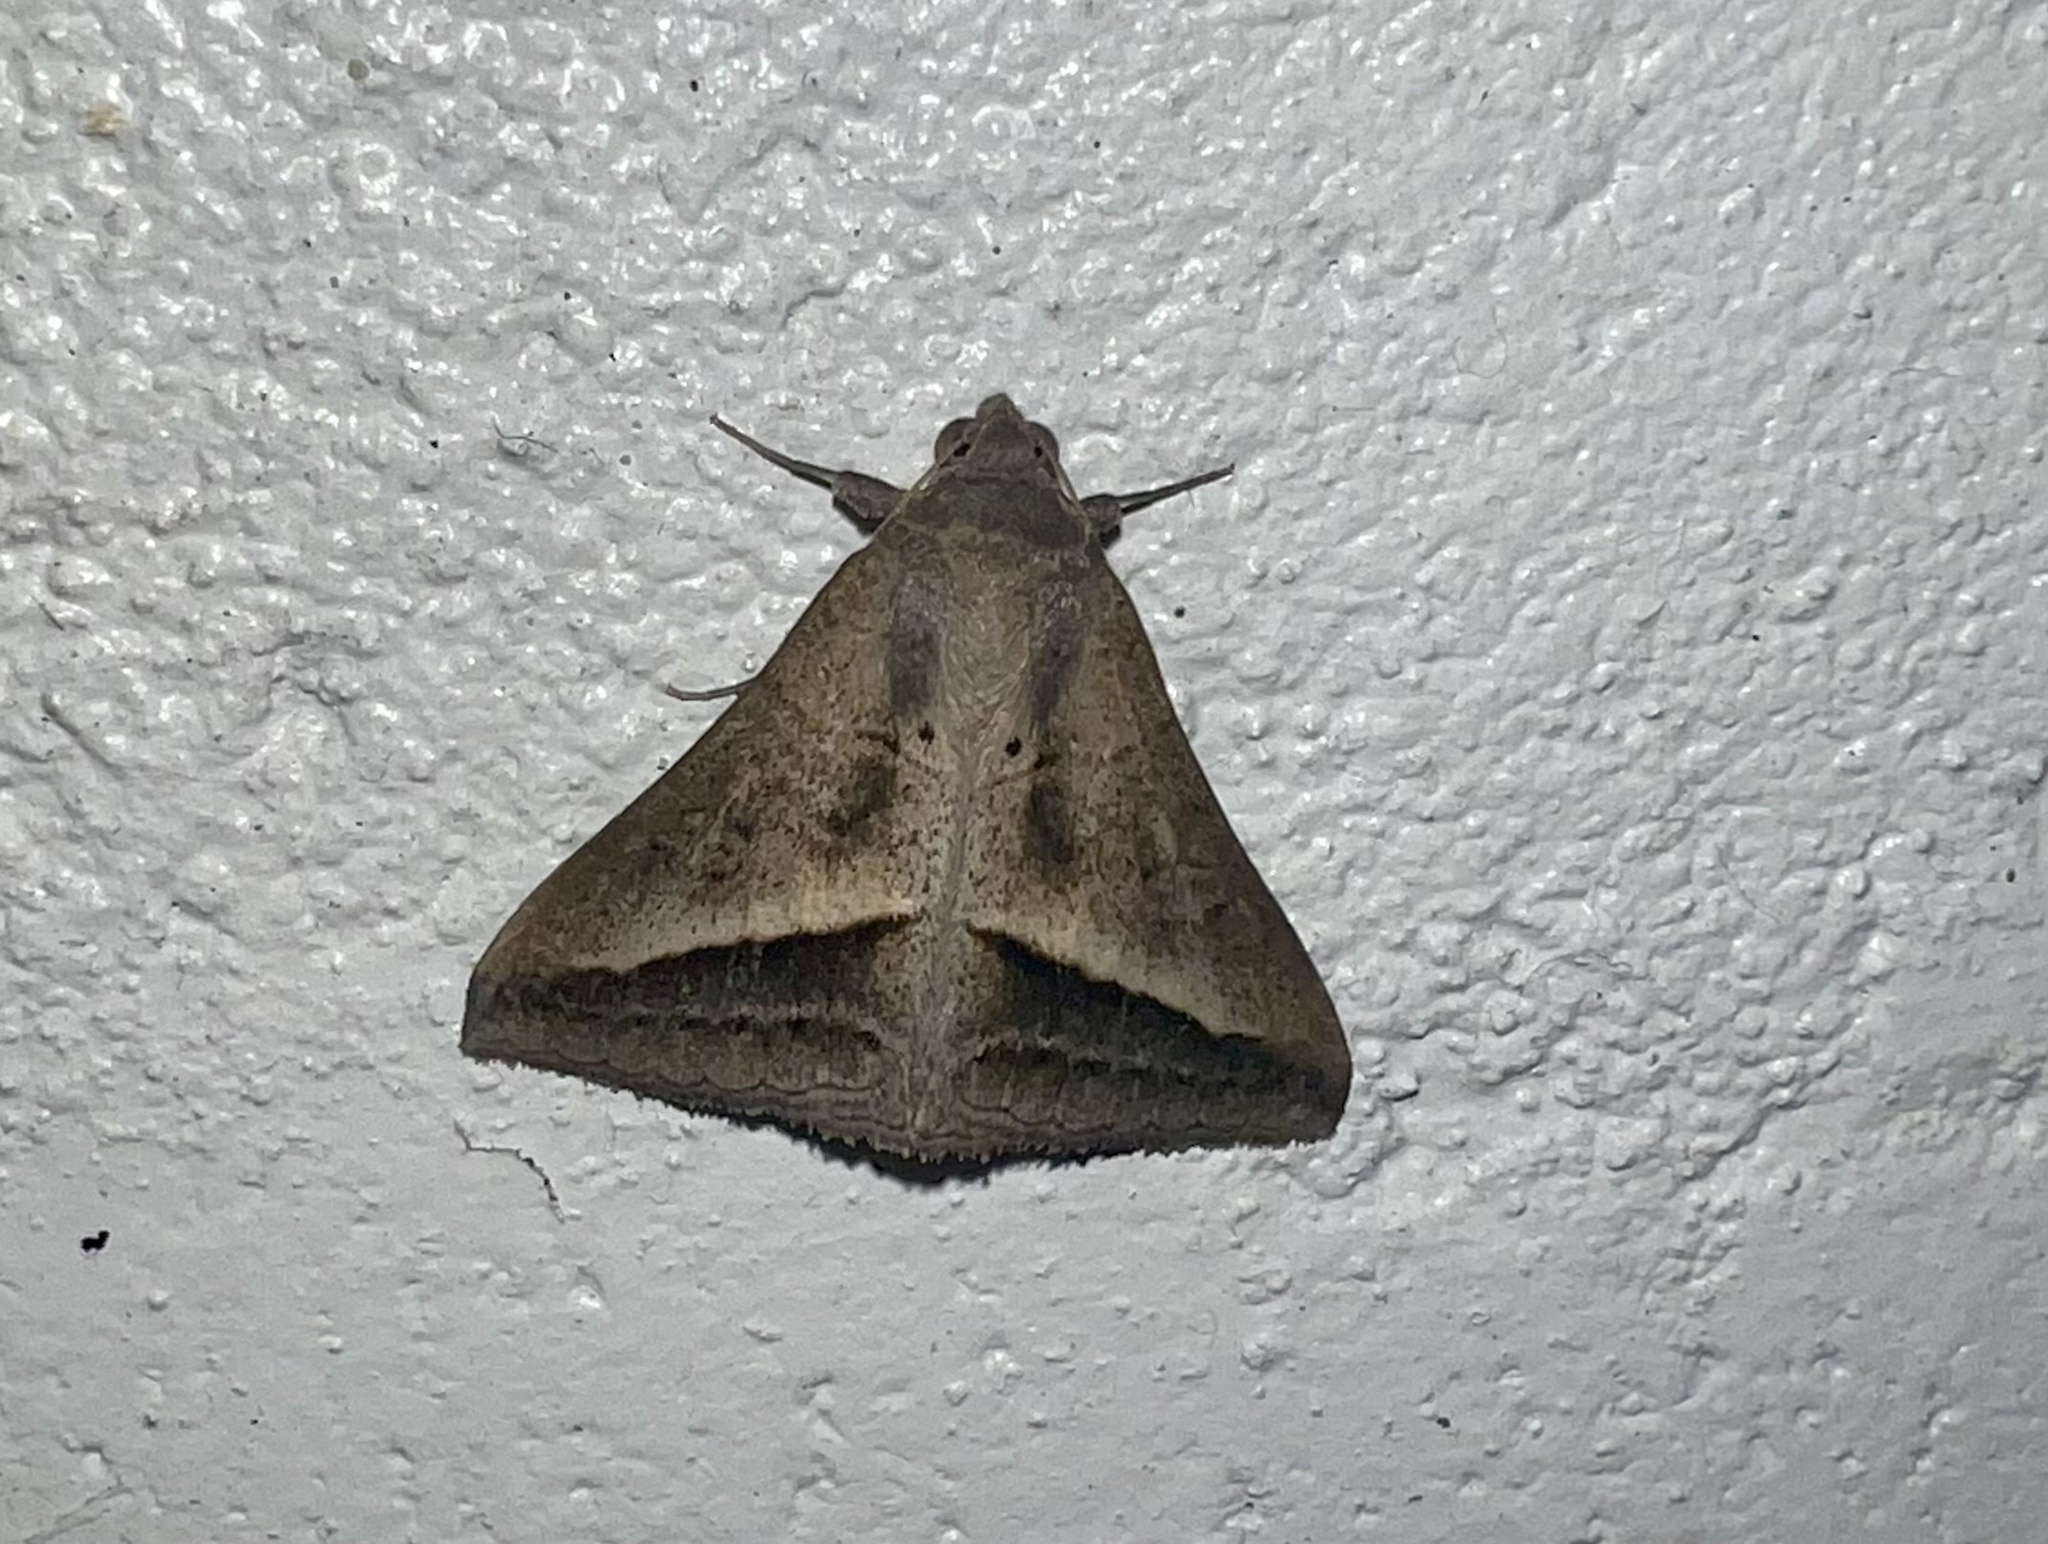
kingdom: Animalia
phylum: Arthropoda
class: Insecta
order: Lepidoptera
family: Erebidae
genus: Mocis
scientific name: Mocis frugalis
